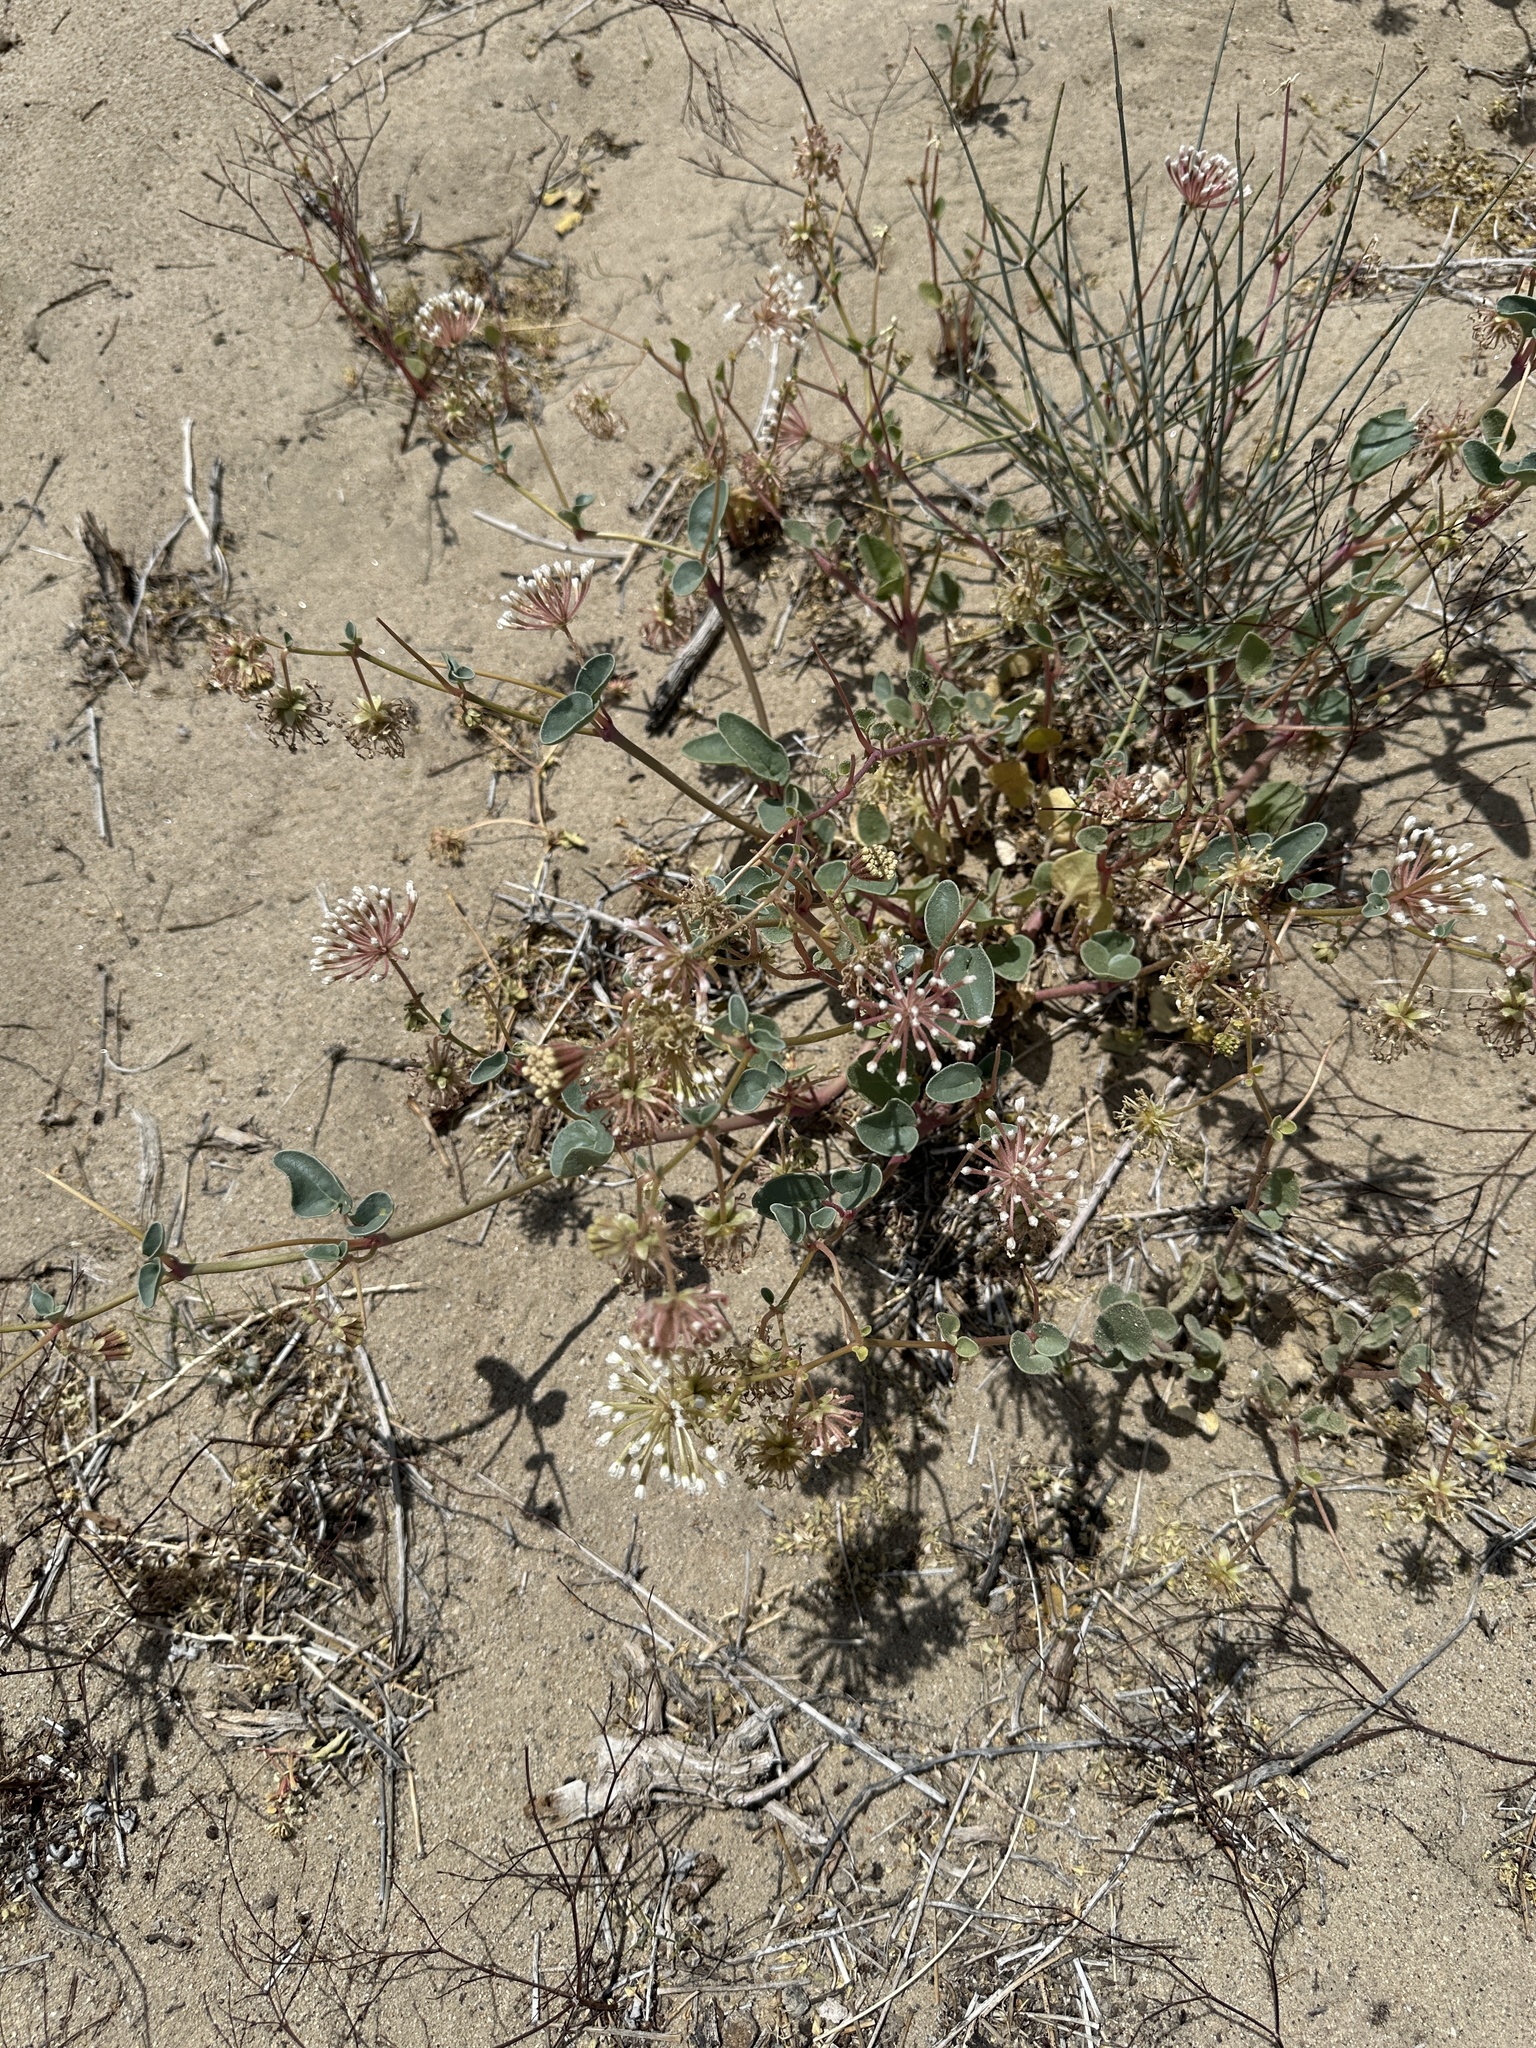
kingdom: Plantae
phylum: Tracheophyta
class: Magnoliopsida
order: Caryophyllales
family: Nyctaginaceae
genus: Abronia
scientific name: Abronia turbinata
